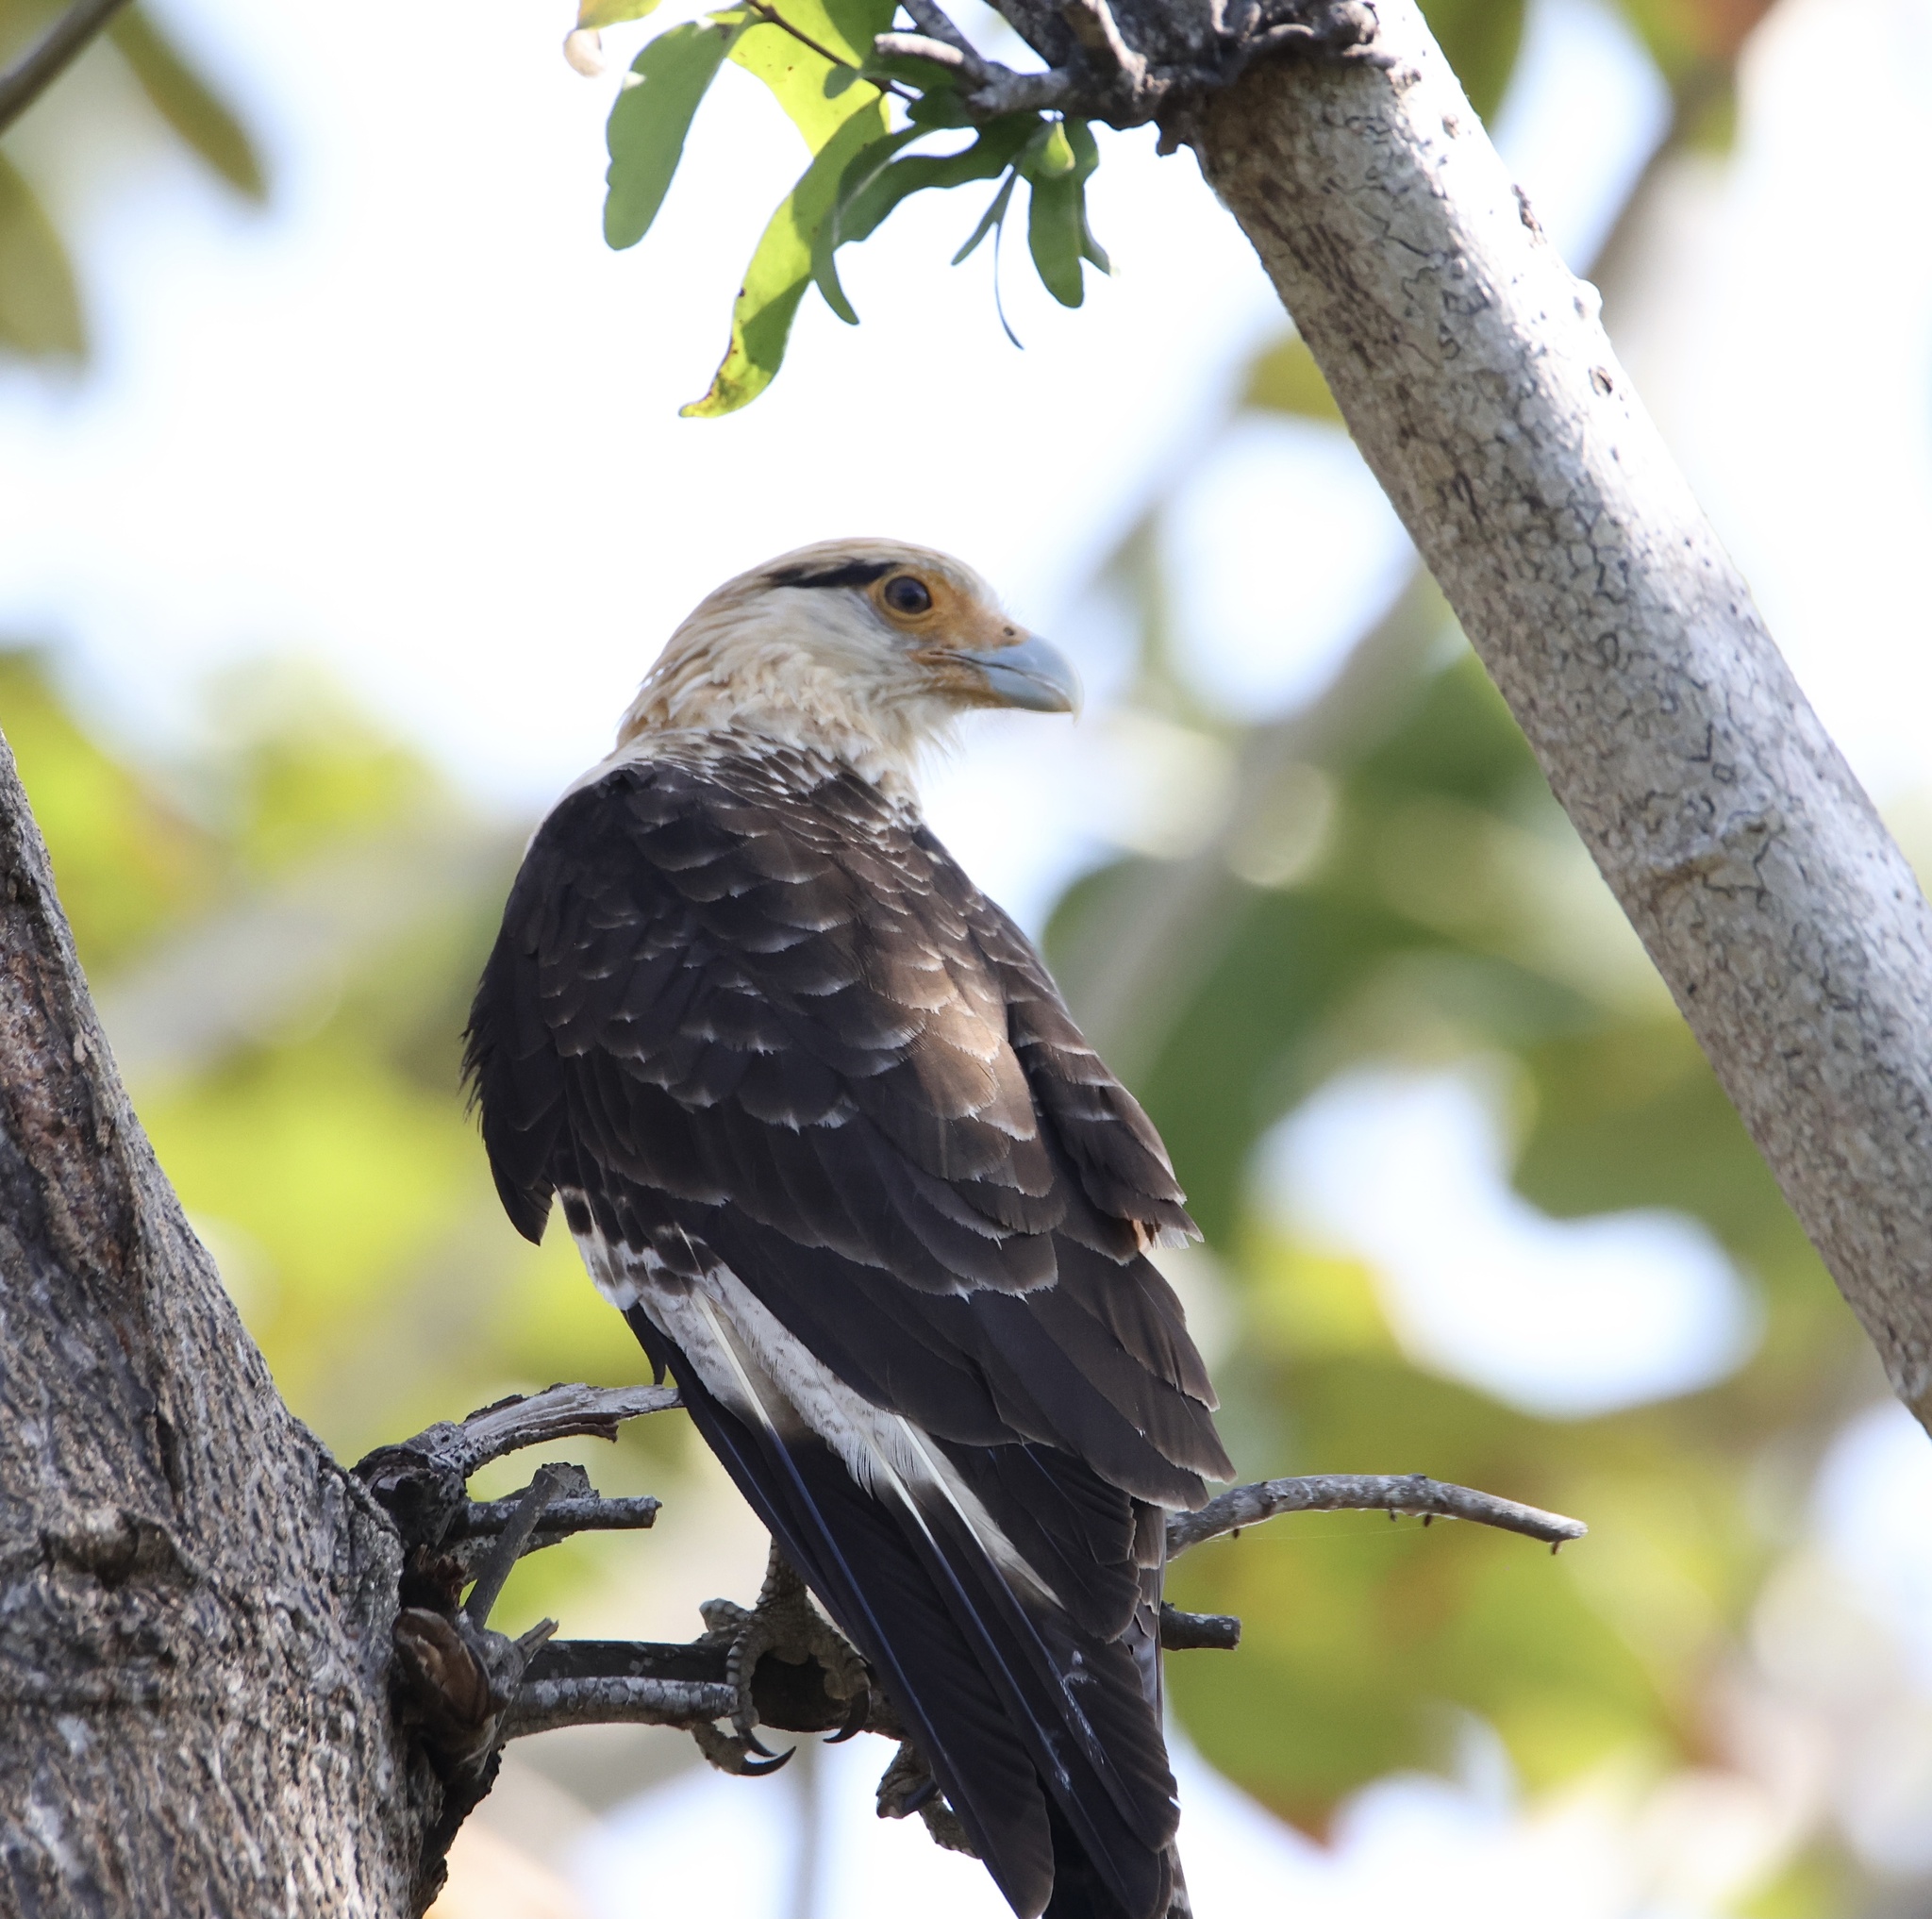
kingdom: Animalia
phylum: Chordata
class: Aves
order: Falconiformes
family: Falconidae
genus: Daptrius
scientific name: Daptrius
